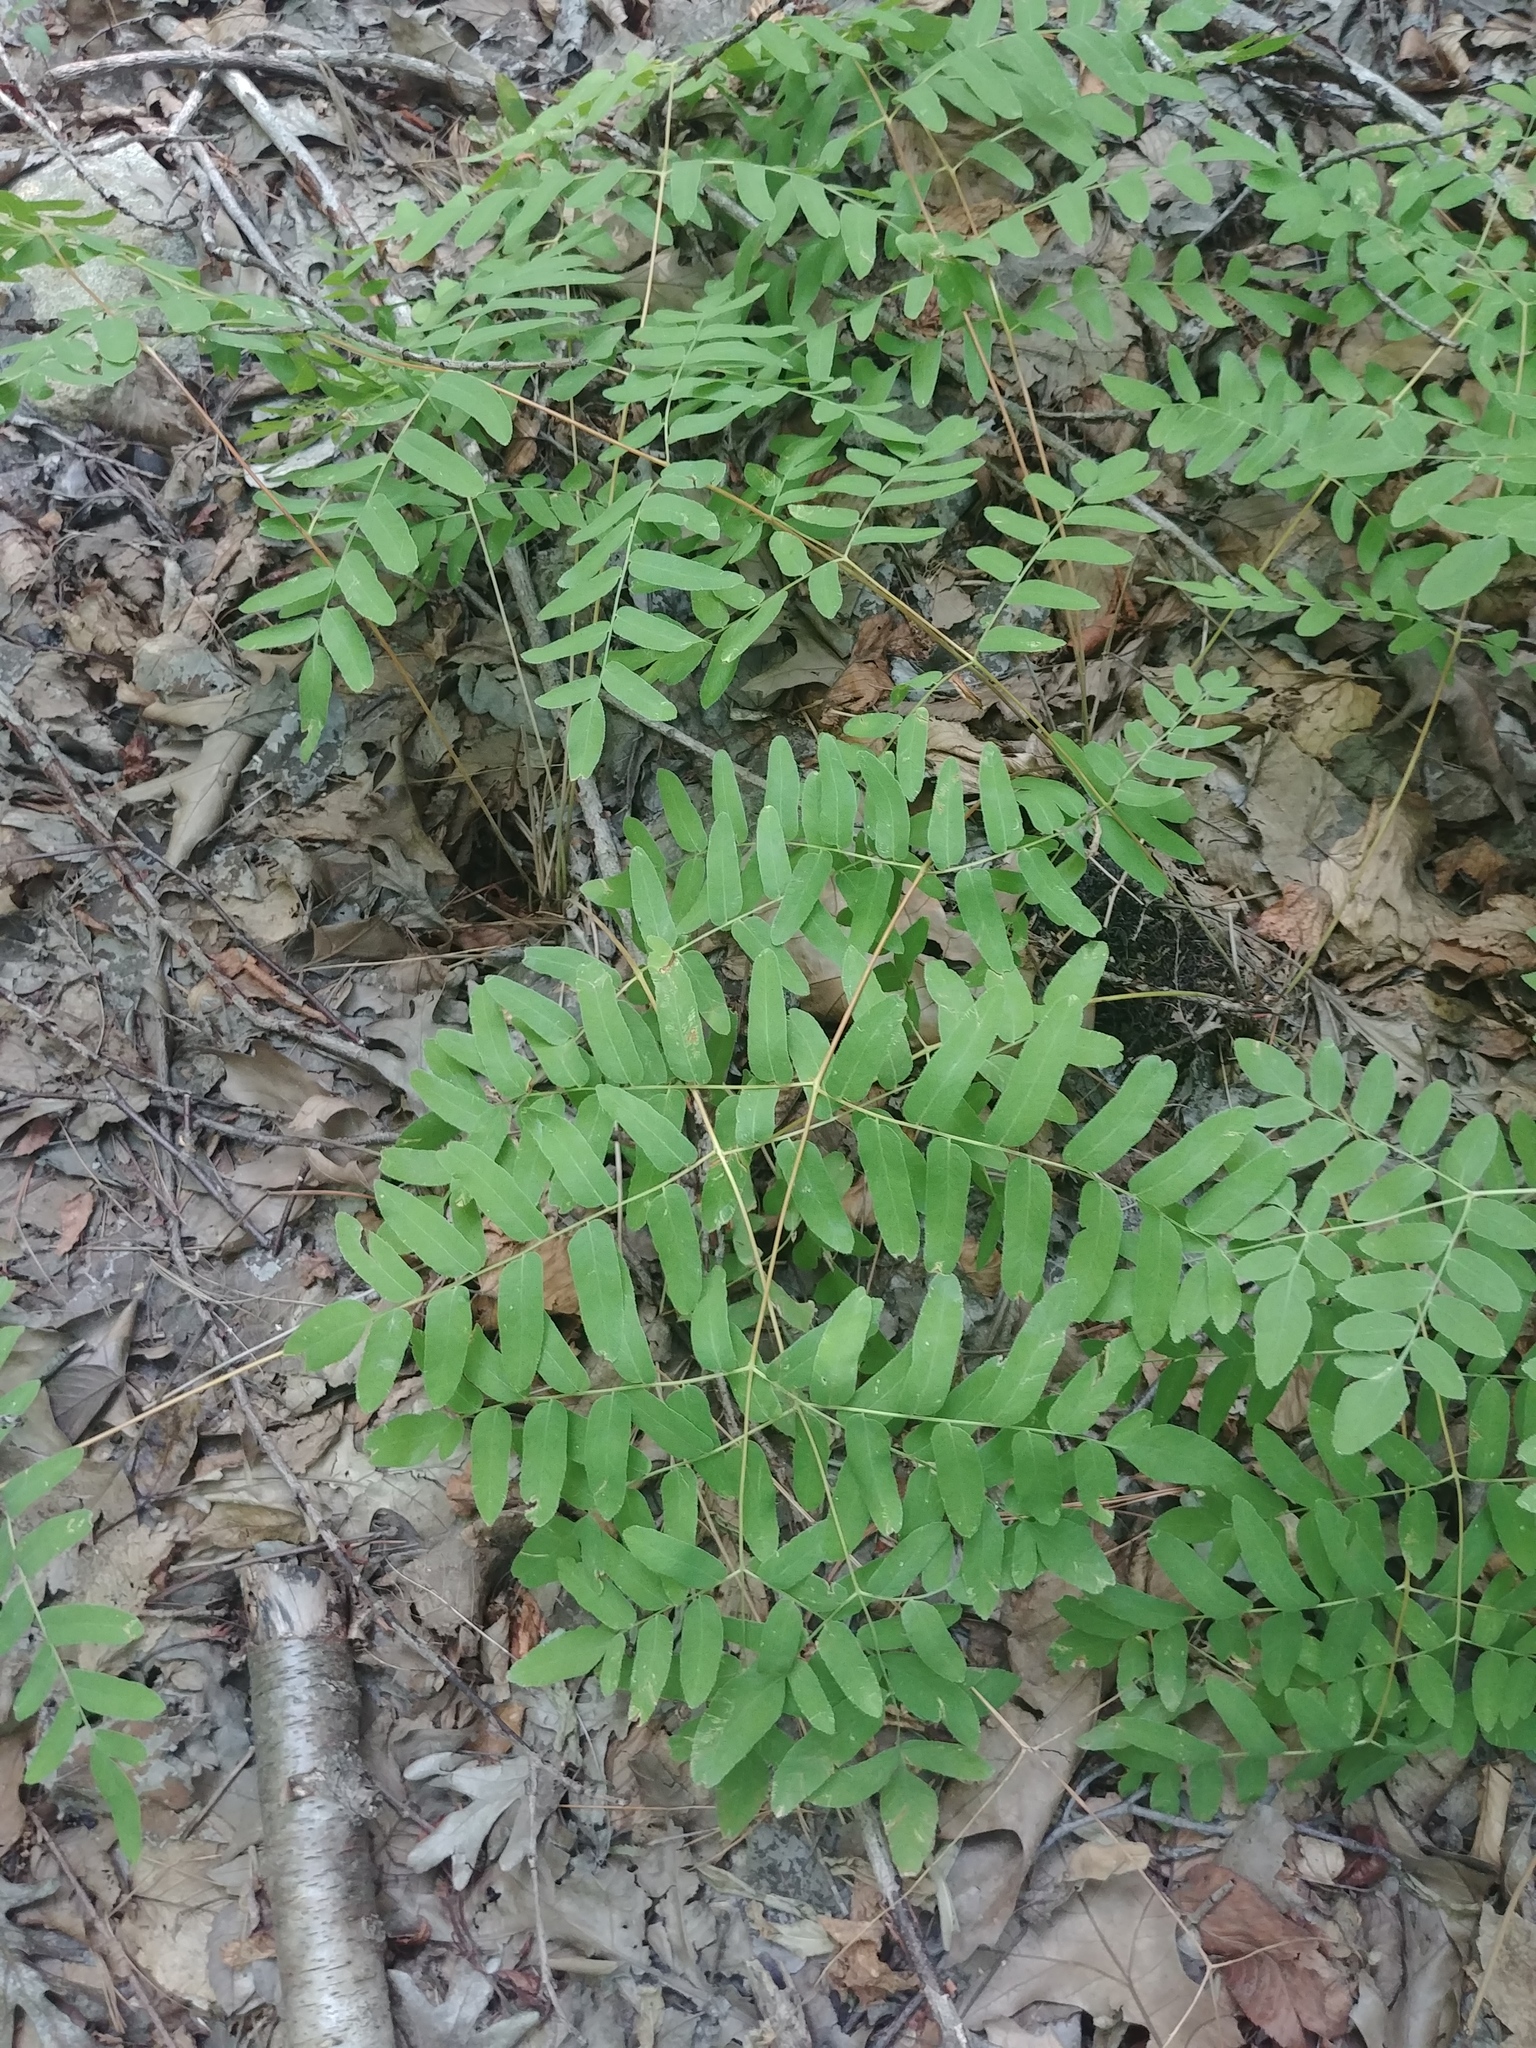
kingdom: Plantae
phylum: Tracheophyta
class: Polypodiopsida
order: Osmundales
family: Osmundaceae
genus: Osmunda
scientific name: Osmunda spectabilis
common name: American royal fern
